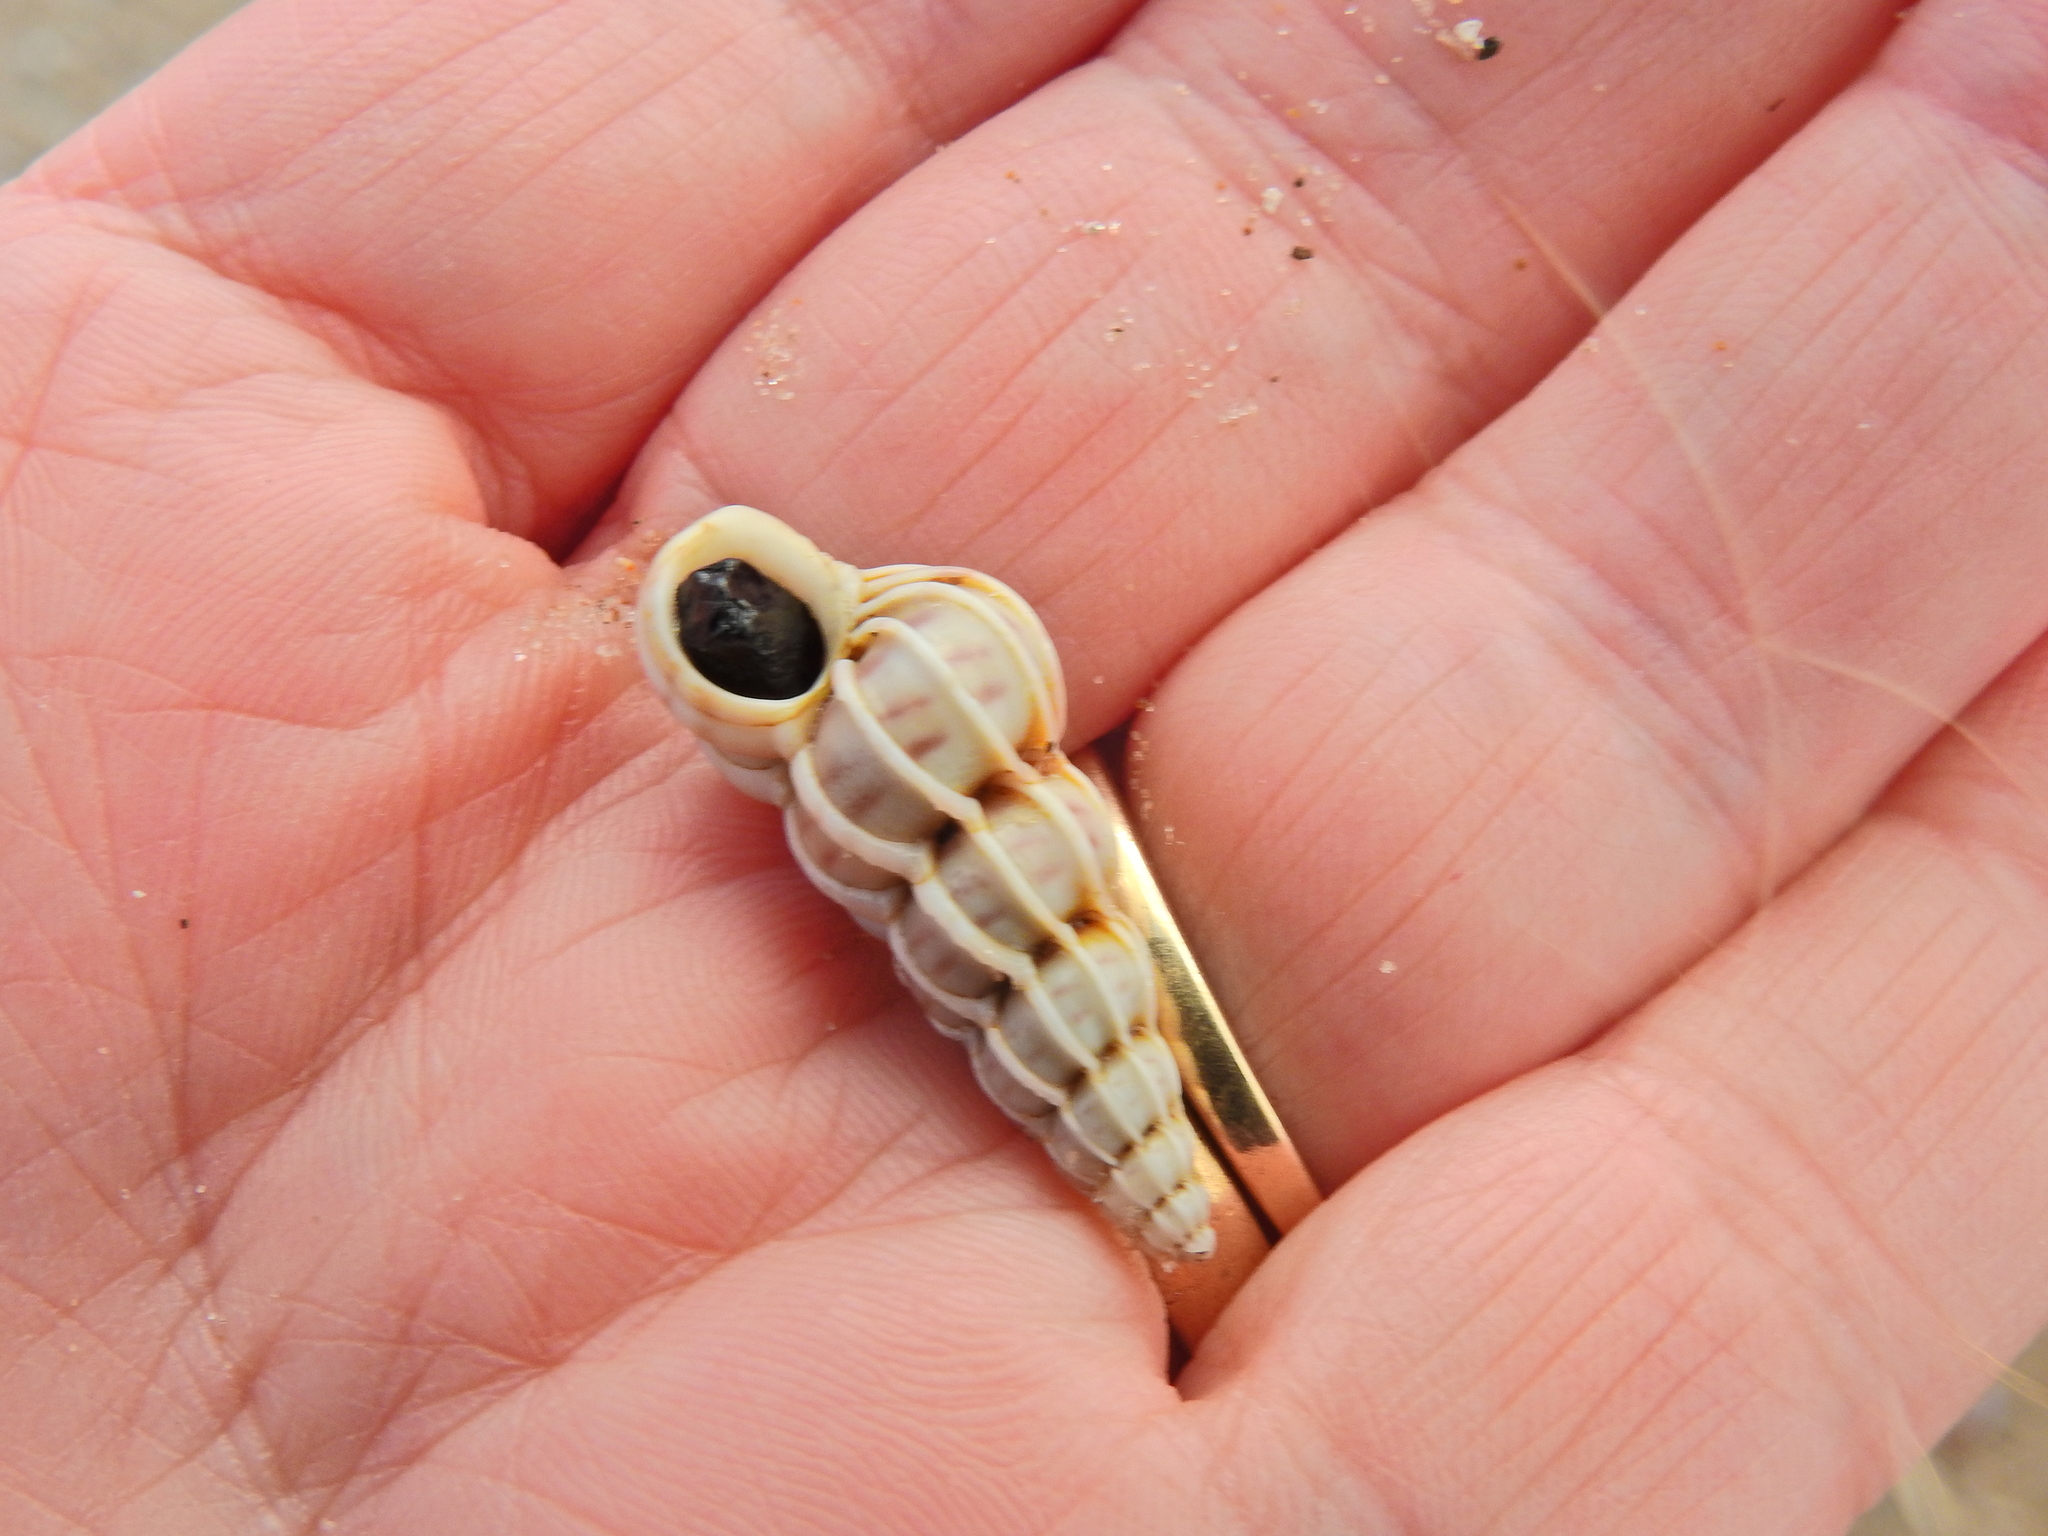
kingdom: Animalia
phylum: Mollusca
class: Gastropoda
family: Epitoniidae
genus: Epitonium
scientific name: Epitonium clathrus
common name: Common wentletrap
